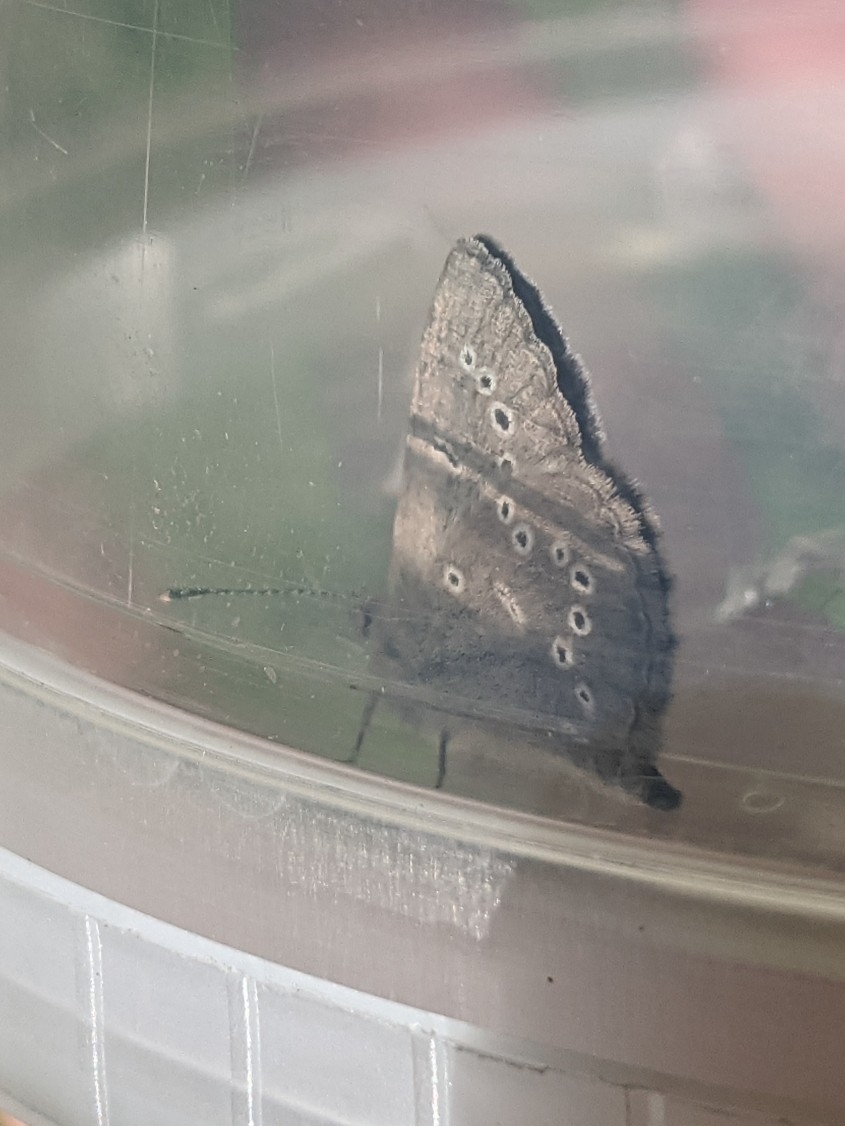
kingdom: Animalia
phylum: Arthropoda
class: Insecta
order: Lepidoptera
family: Lycaenidae
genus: Glaucopsyche
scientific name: Glaucopsyche lygdamus
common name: Silvery blue
